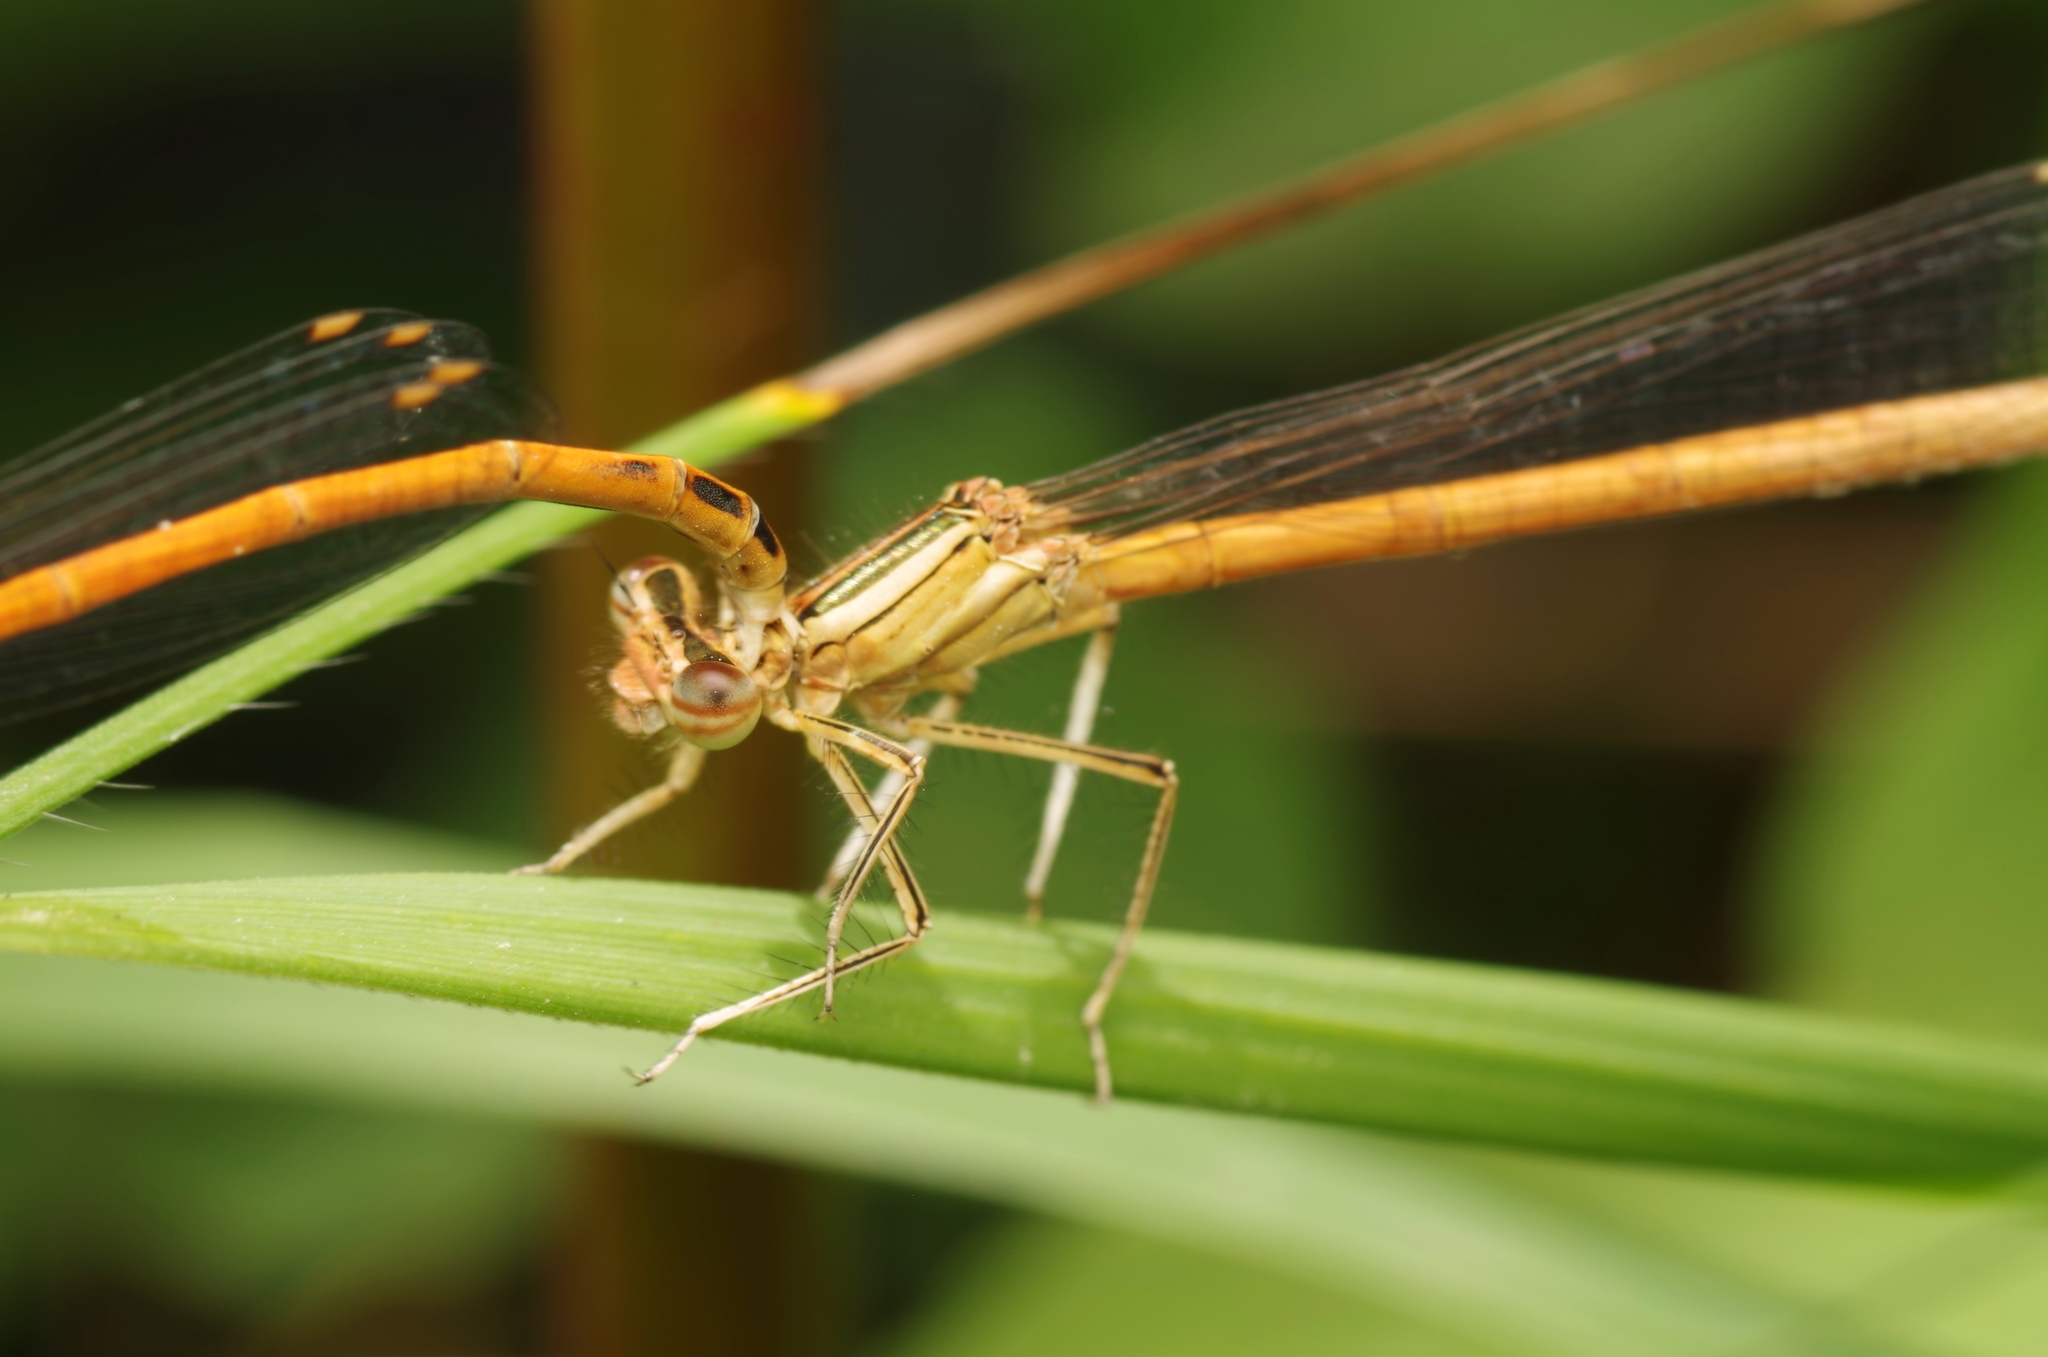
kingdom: Animalia
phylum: Arthropoda
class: Insecta
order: Odonata
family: Platycnemididae
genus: Platycnemis
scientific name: Platycnemis acutipennis
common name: Orange featherleg
